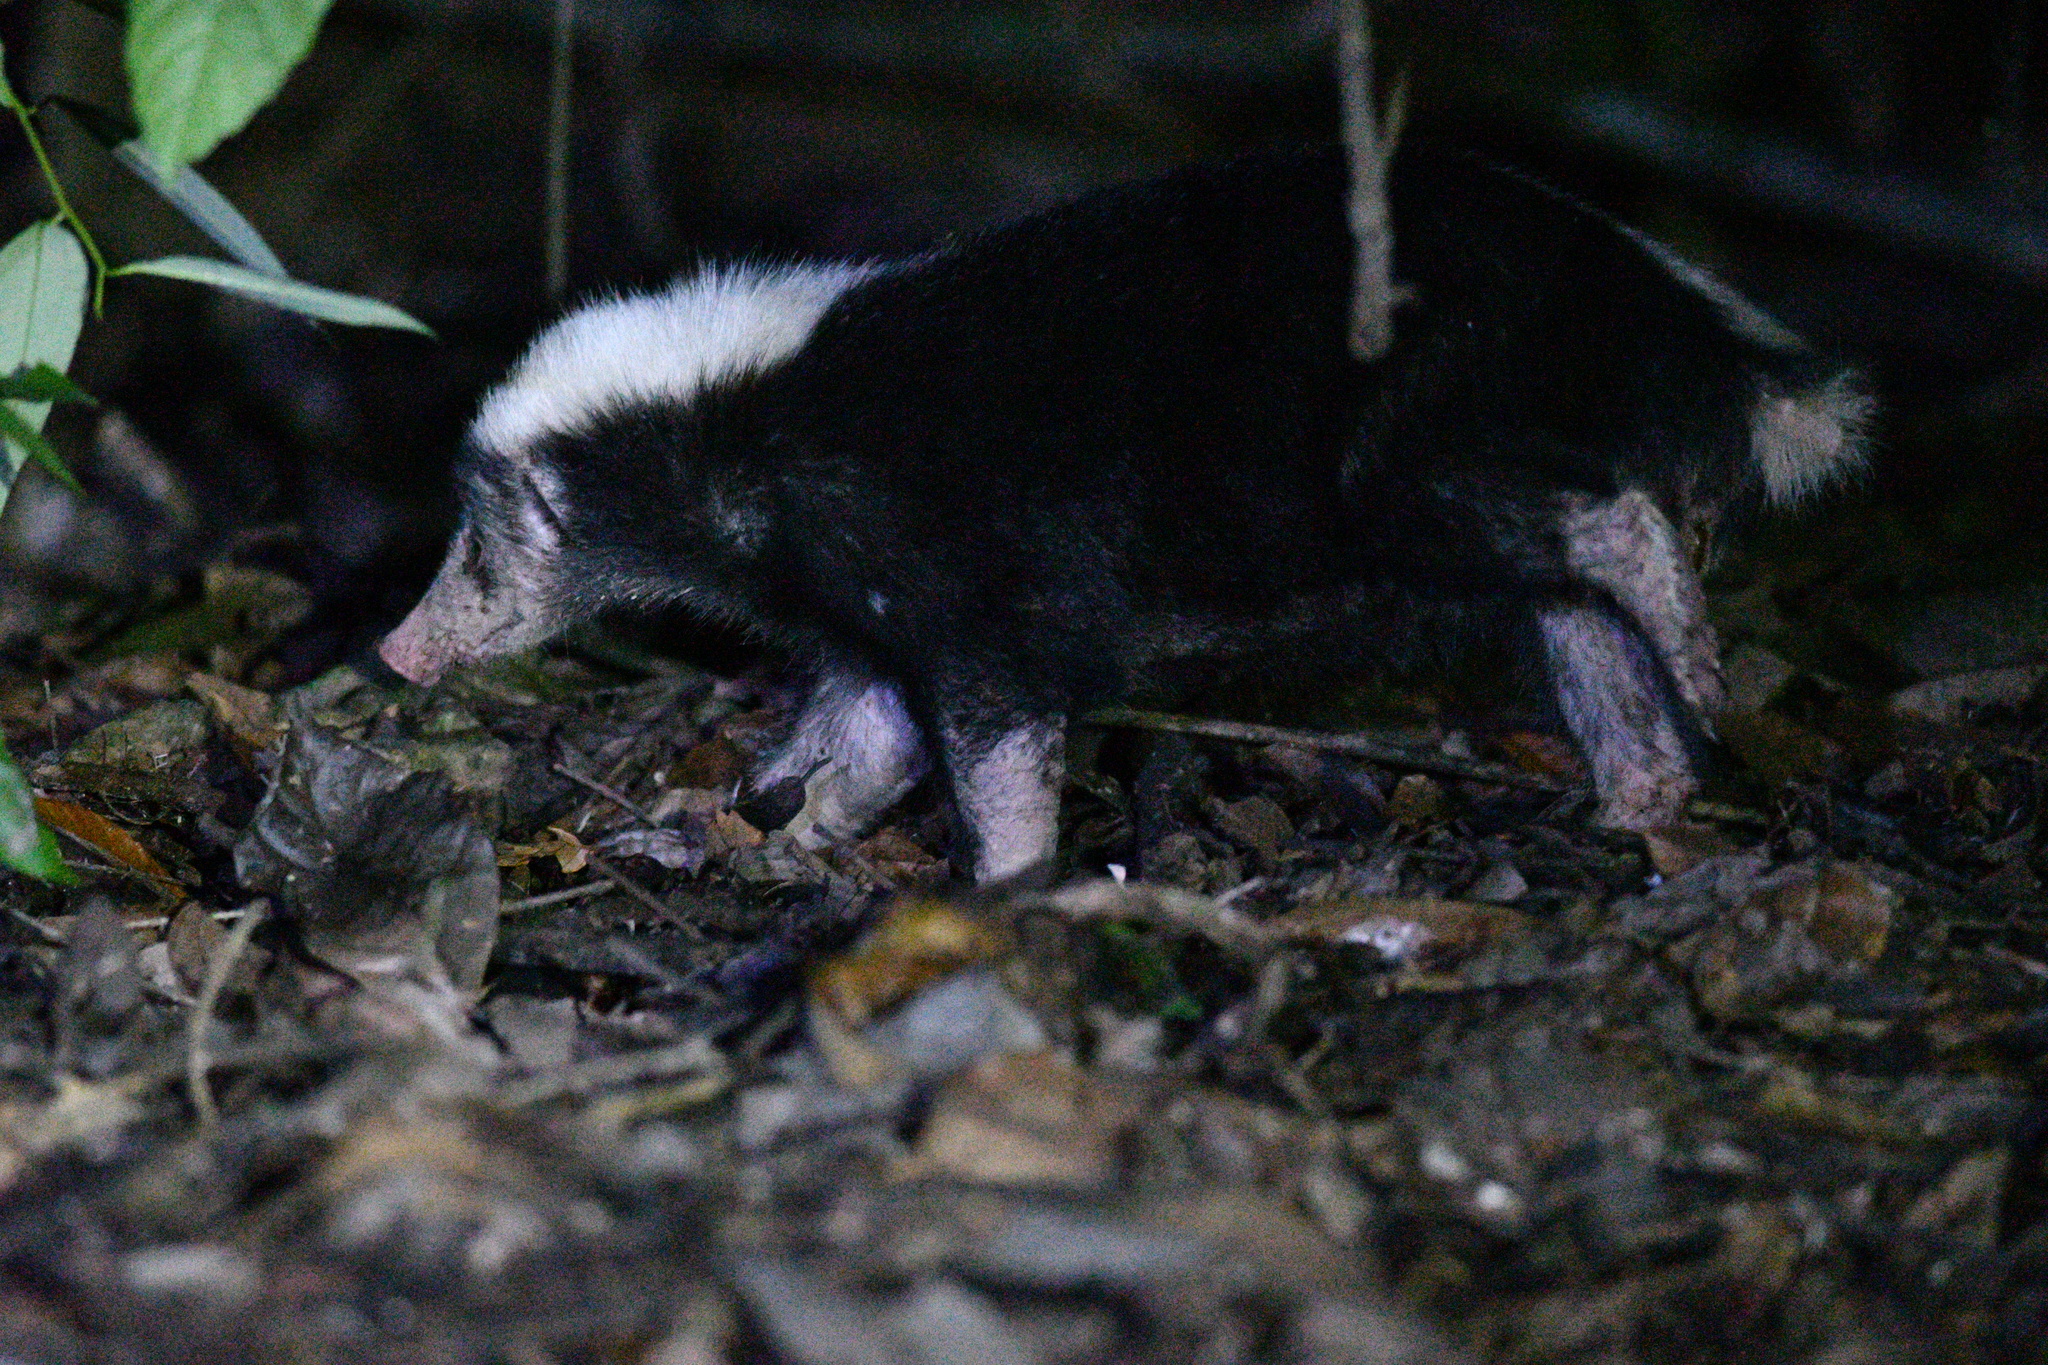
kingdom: Animalia
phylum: Chordata
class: Mammalia
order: Carnivora
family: Mephitidae
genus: Mydaus
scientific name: Mydaus javanensis
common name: Sunda stink badger
